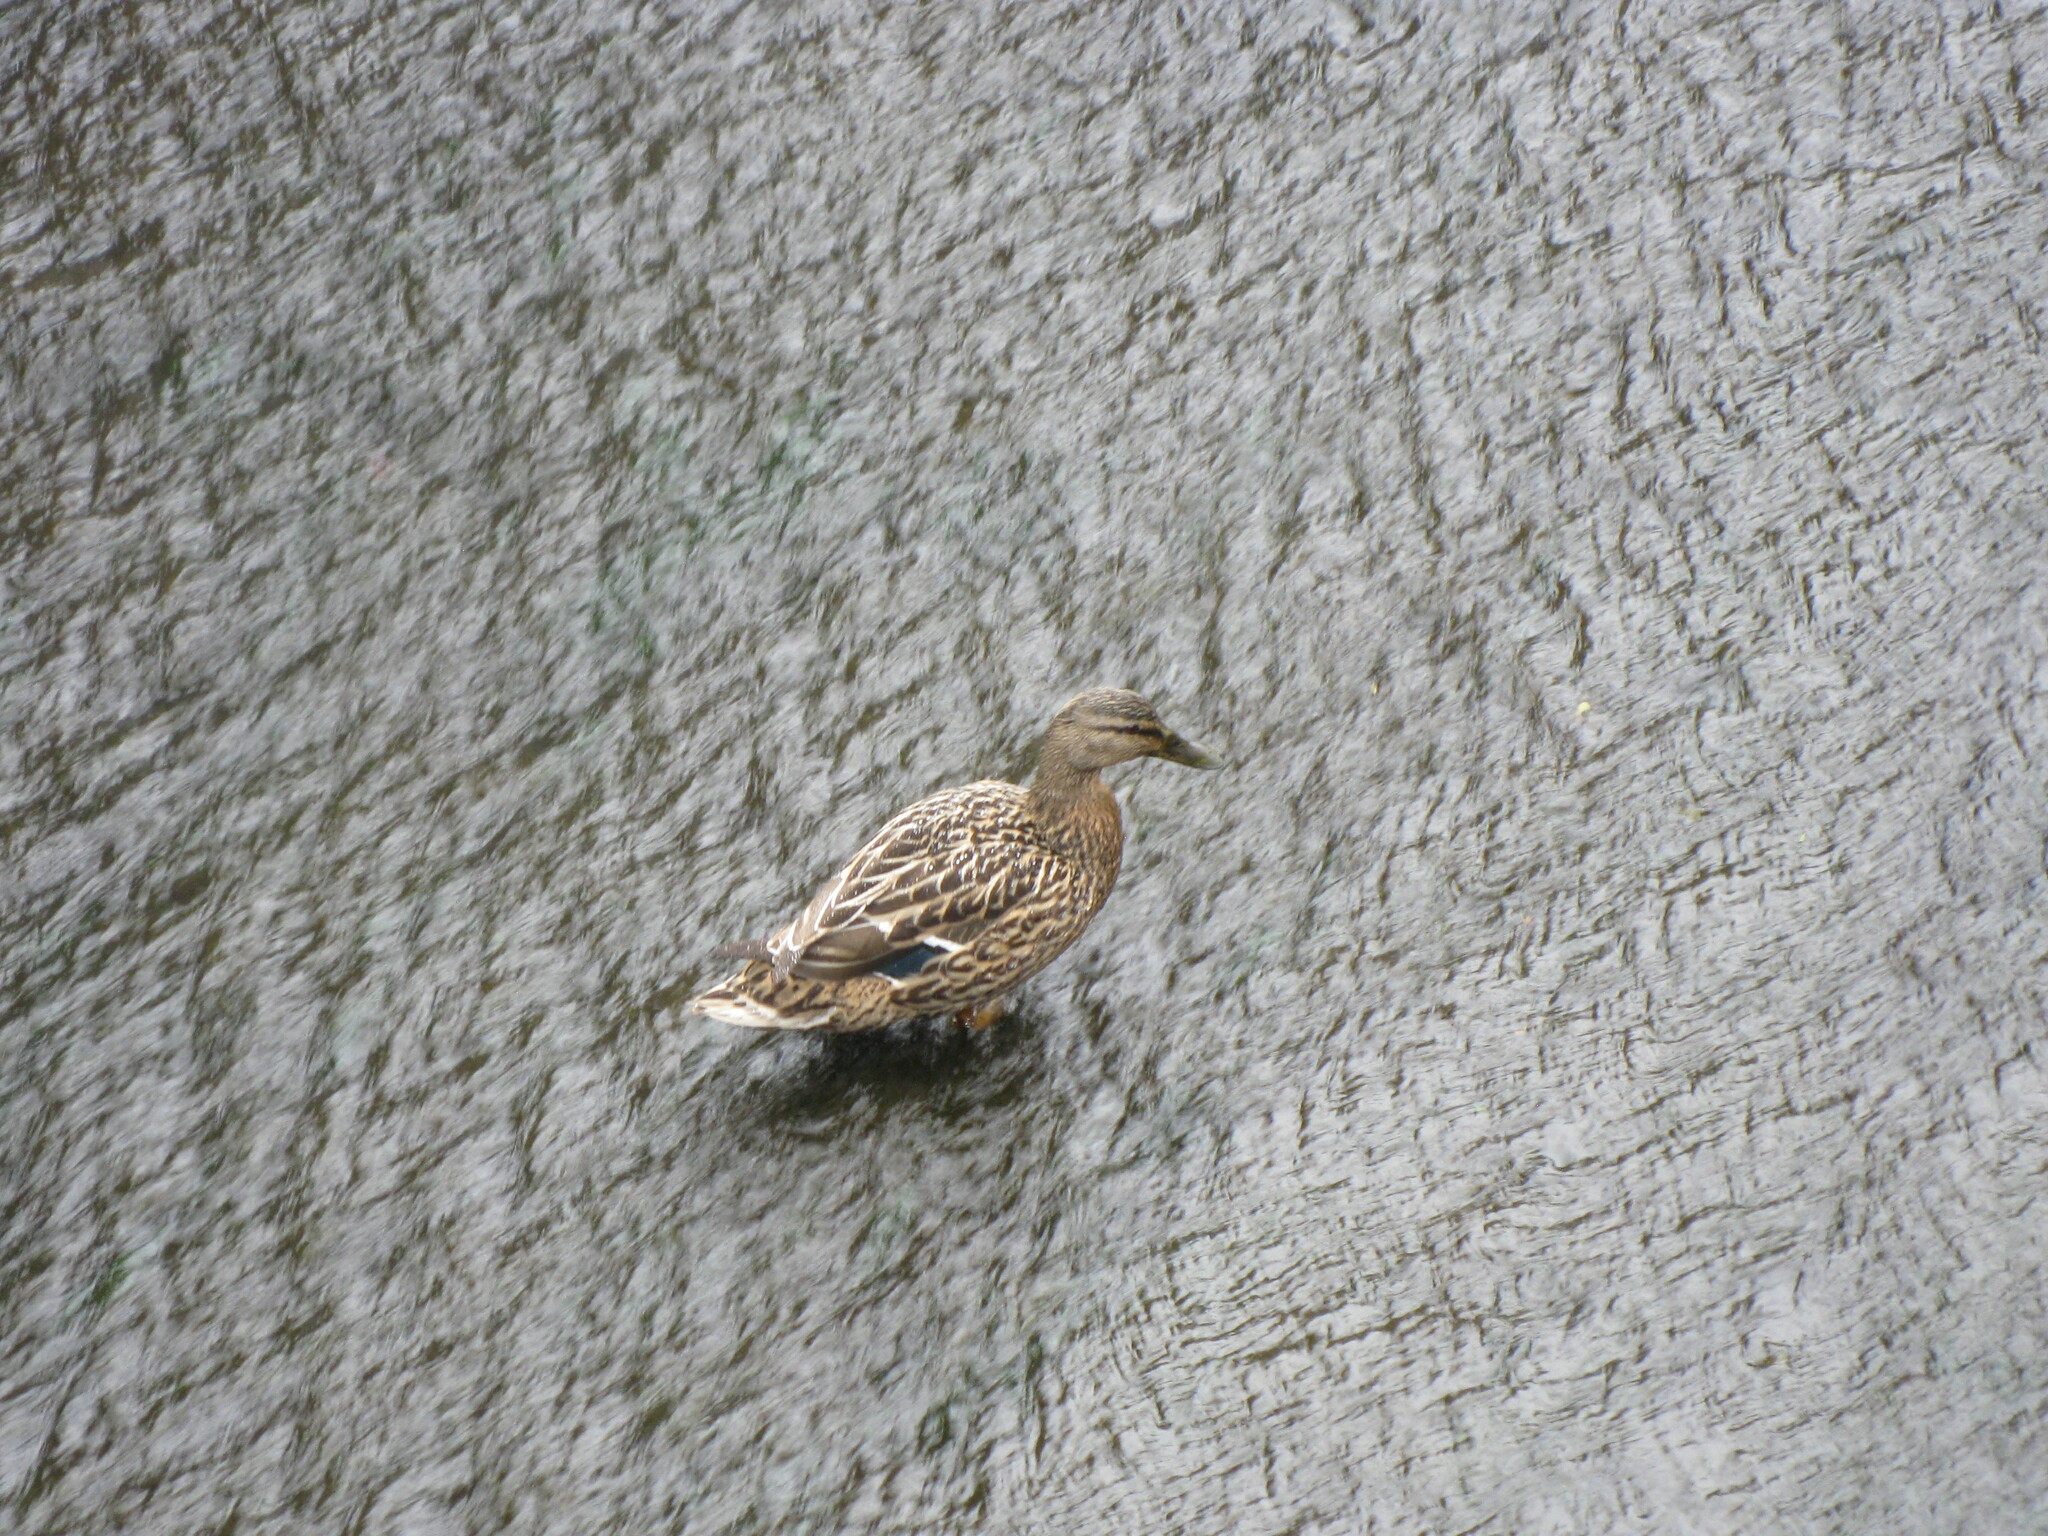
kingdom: Animalia
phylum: Chordata
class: Aves
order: Anseriformes
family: Anatidae
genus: Anas
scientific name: Anas platyrhynchos
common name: Mallard
